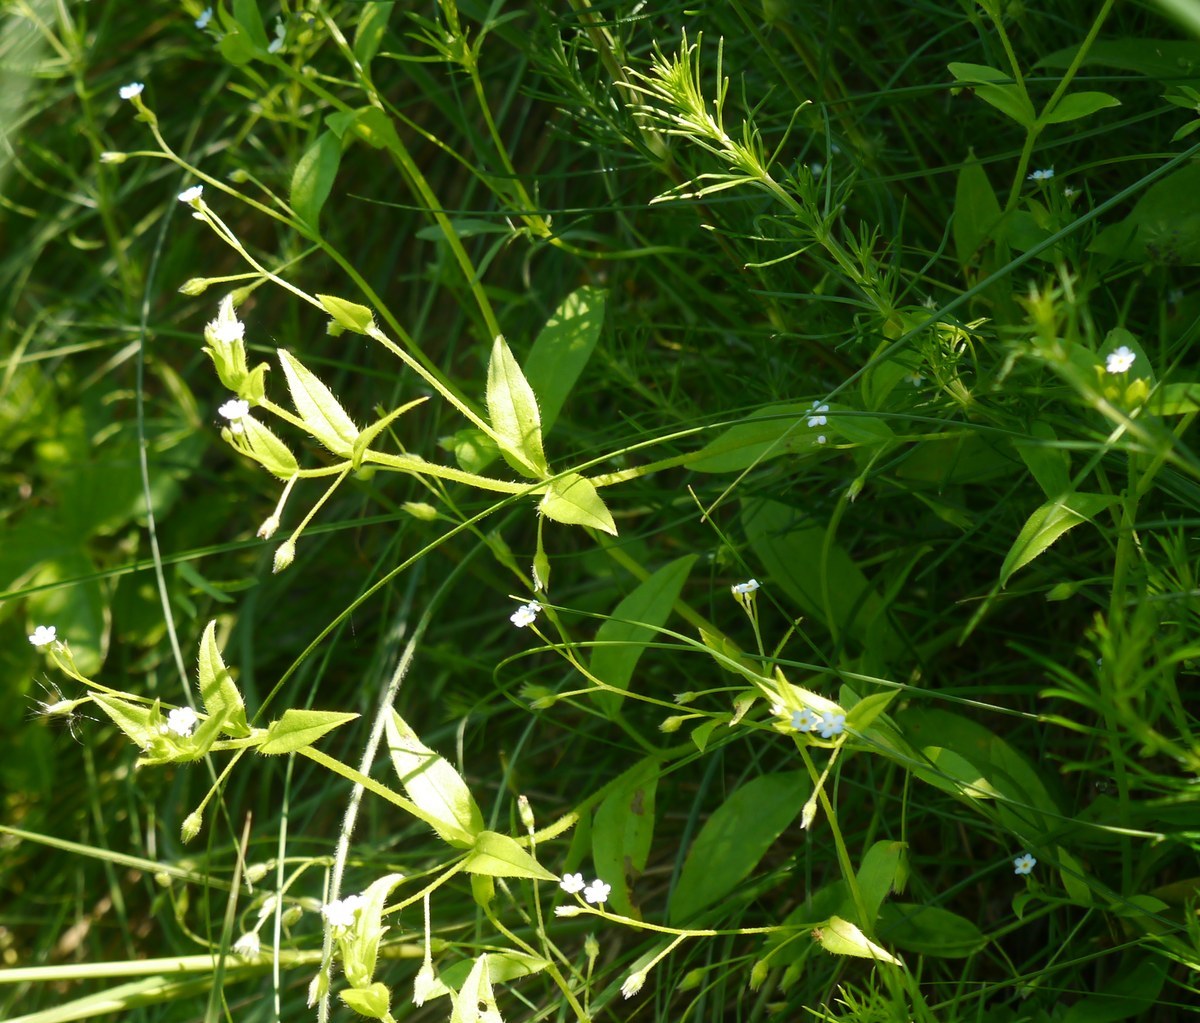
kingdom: Plantae
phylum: Tracheophyta
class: Magnoliopsida
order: Boraginales
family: Boraginaceae
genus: Myosotis
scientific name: Myosotis sparsiflora
